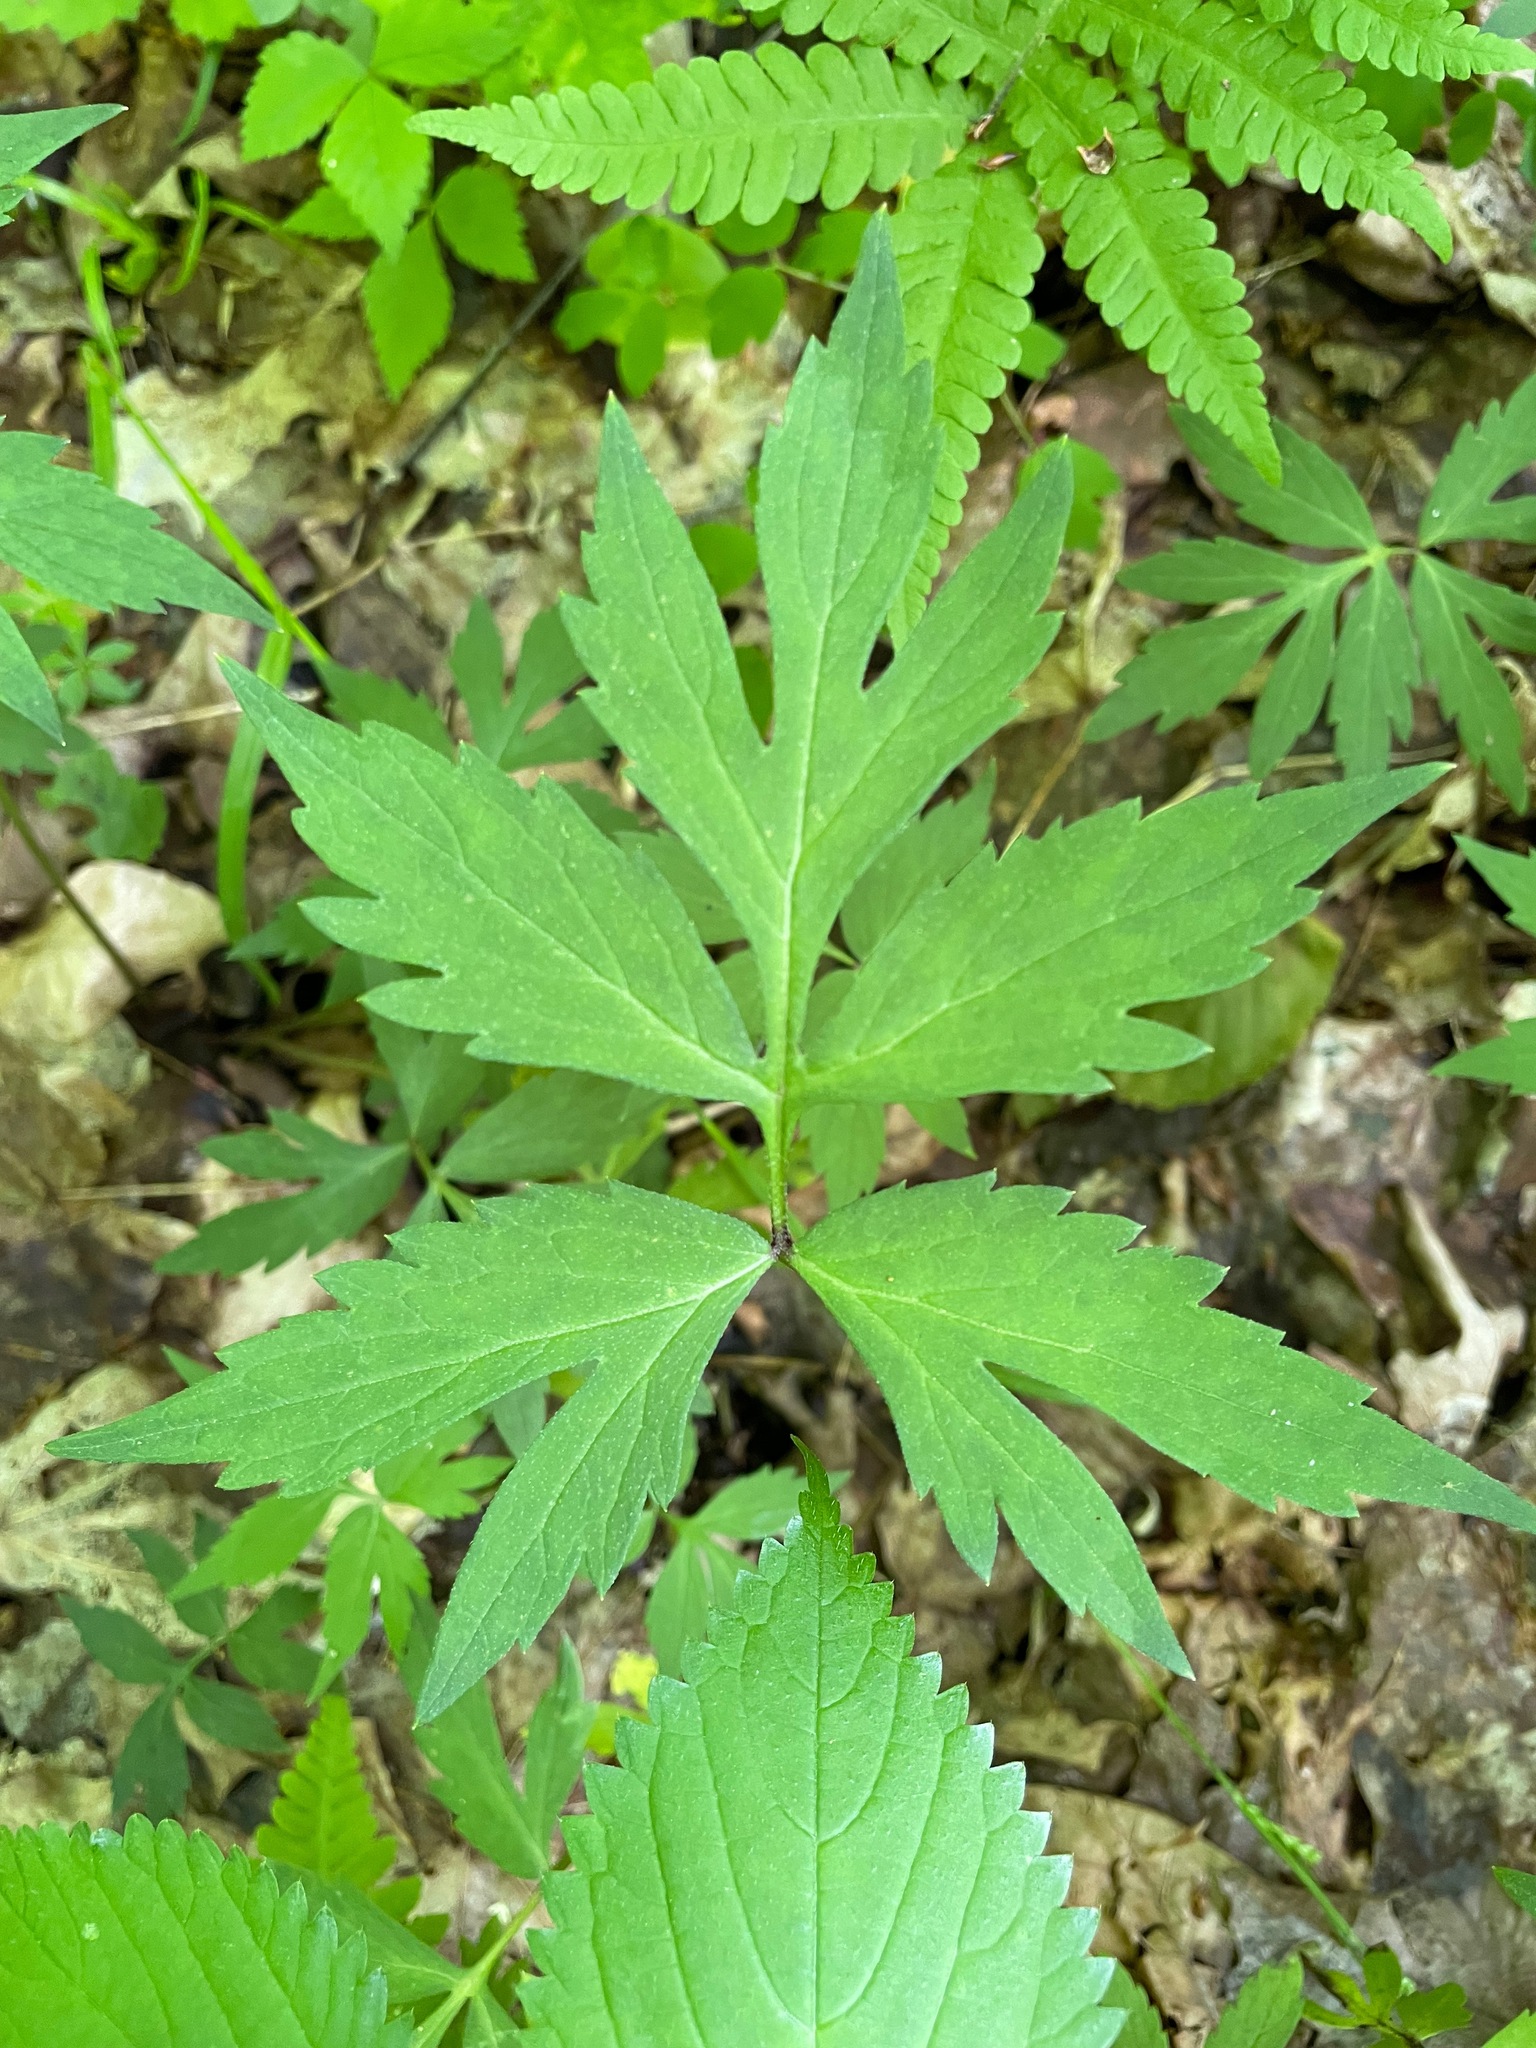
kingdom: Plantae
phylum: Tracheophyta
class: Magnoliopsida
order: Boraginales
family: Hydrophyllaceae
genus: Hydrophyllum
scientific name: Hydrophyllum virginianum
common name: Virginia waterleaf
